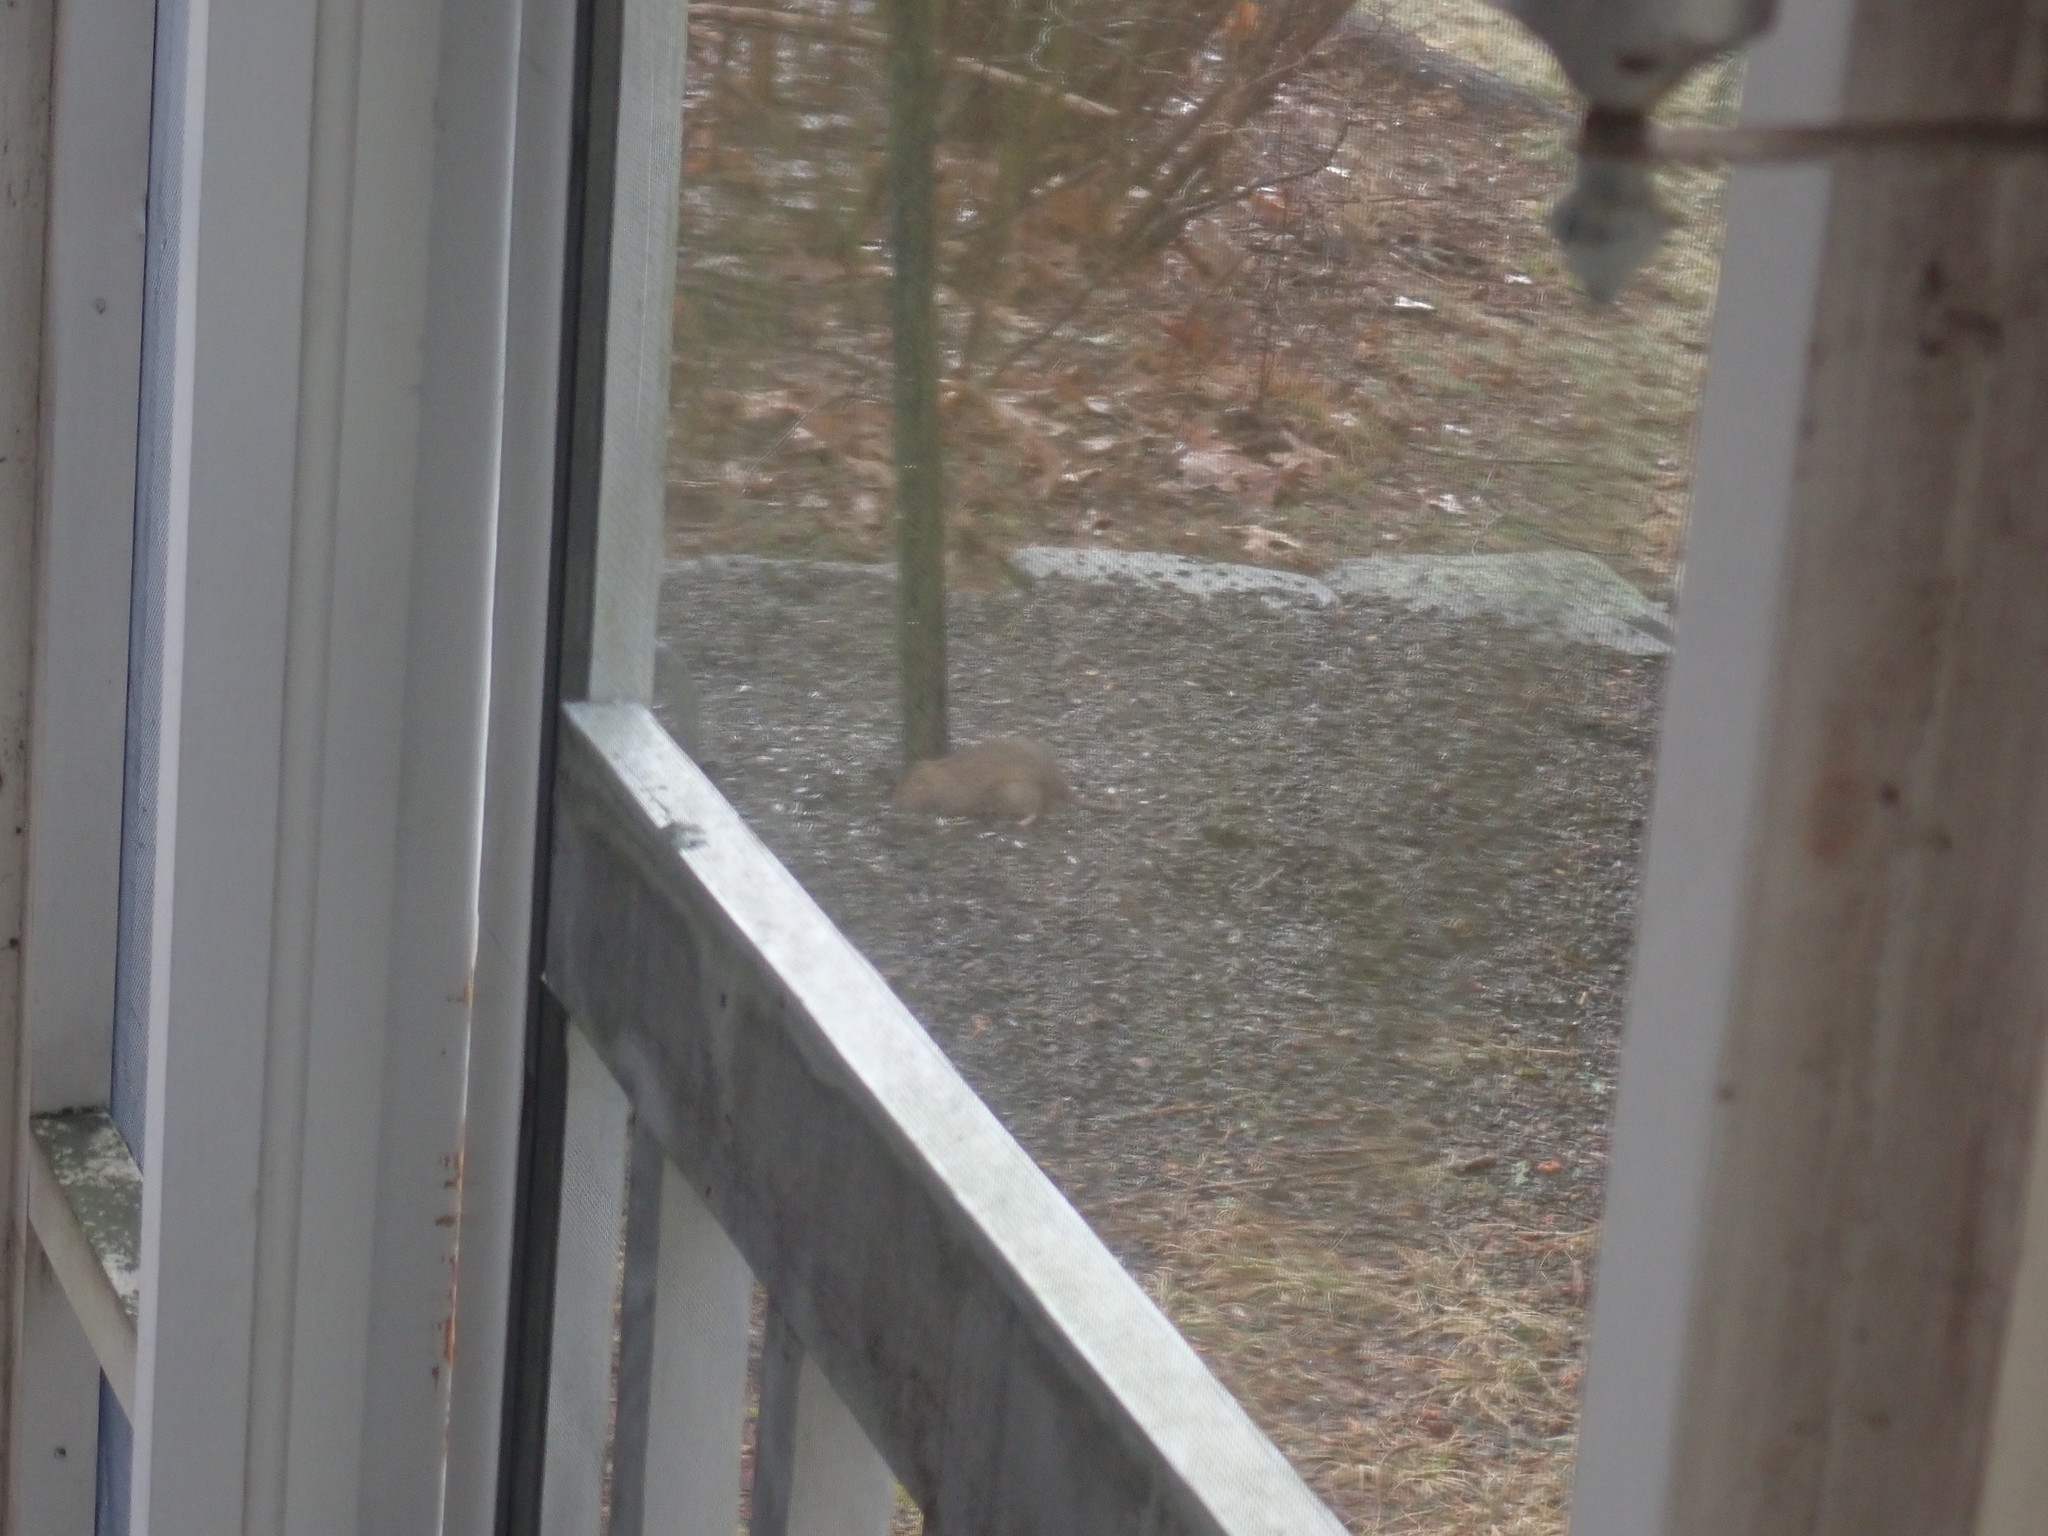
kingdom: Animalia
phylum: Chordata
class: Mammalia
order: Rodentia
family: Muridae
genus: Rattus
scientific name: Rattus norvegicus
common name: Brown rat
